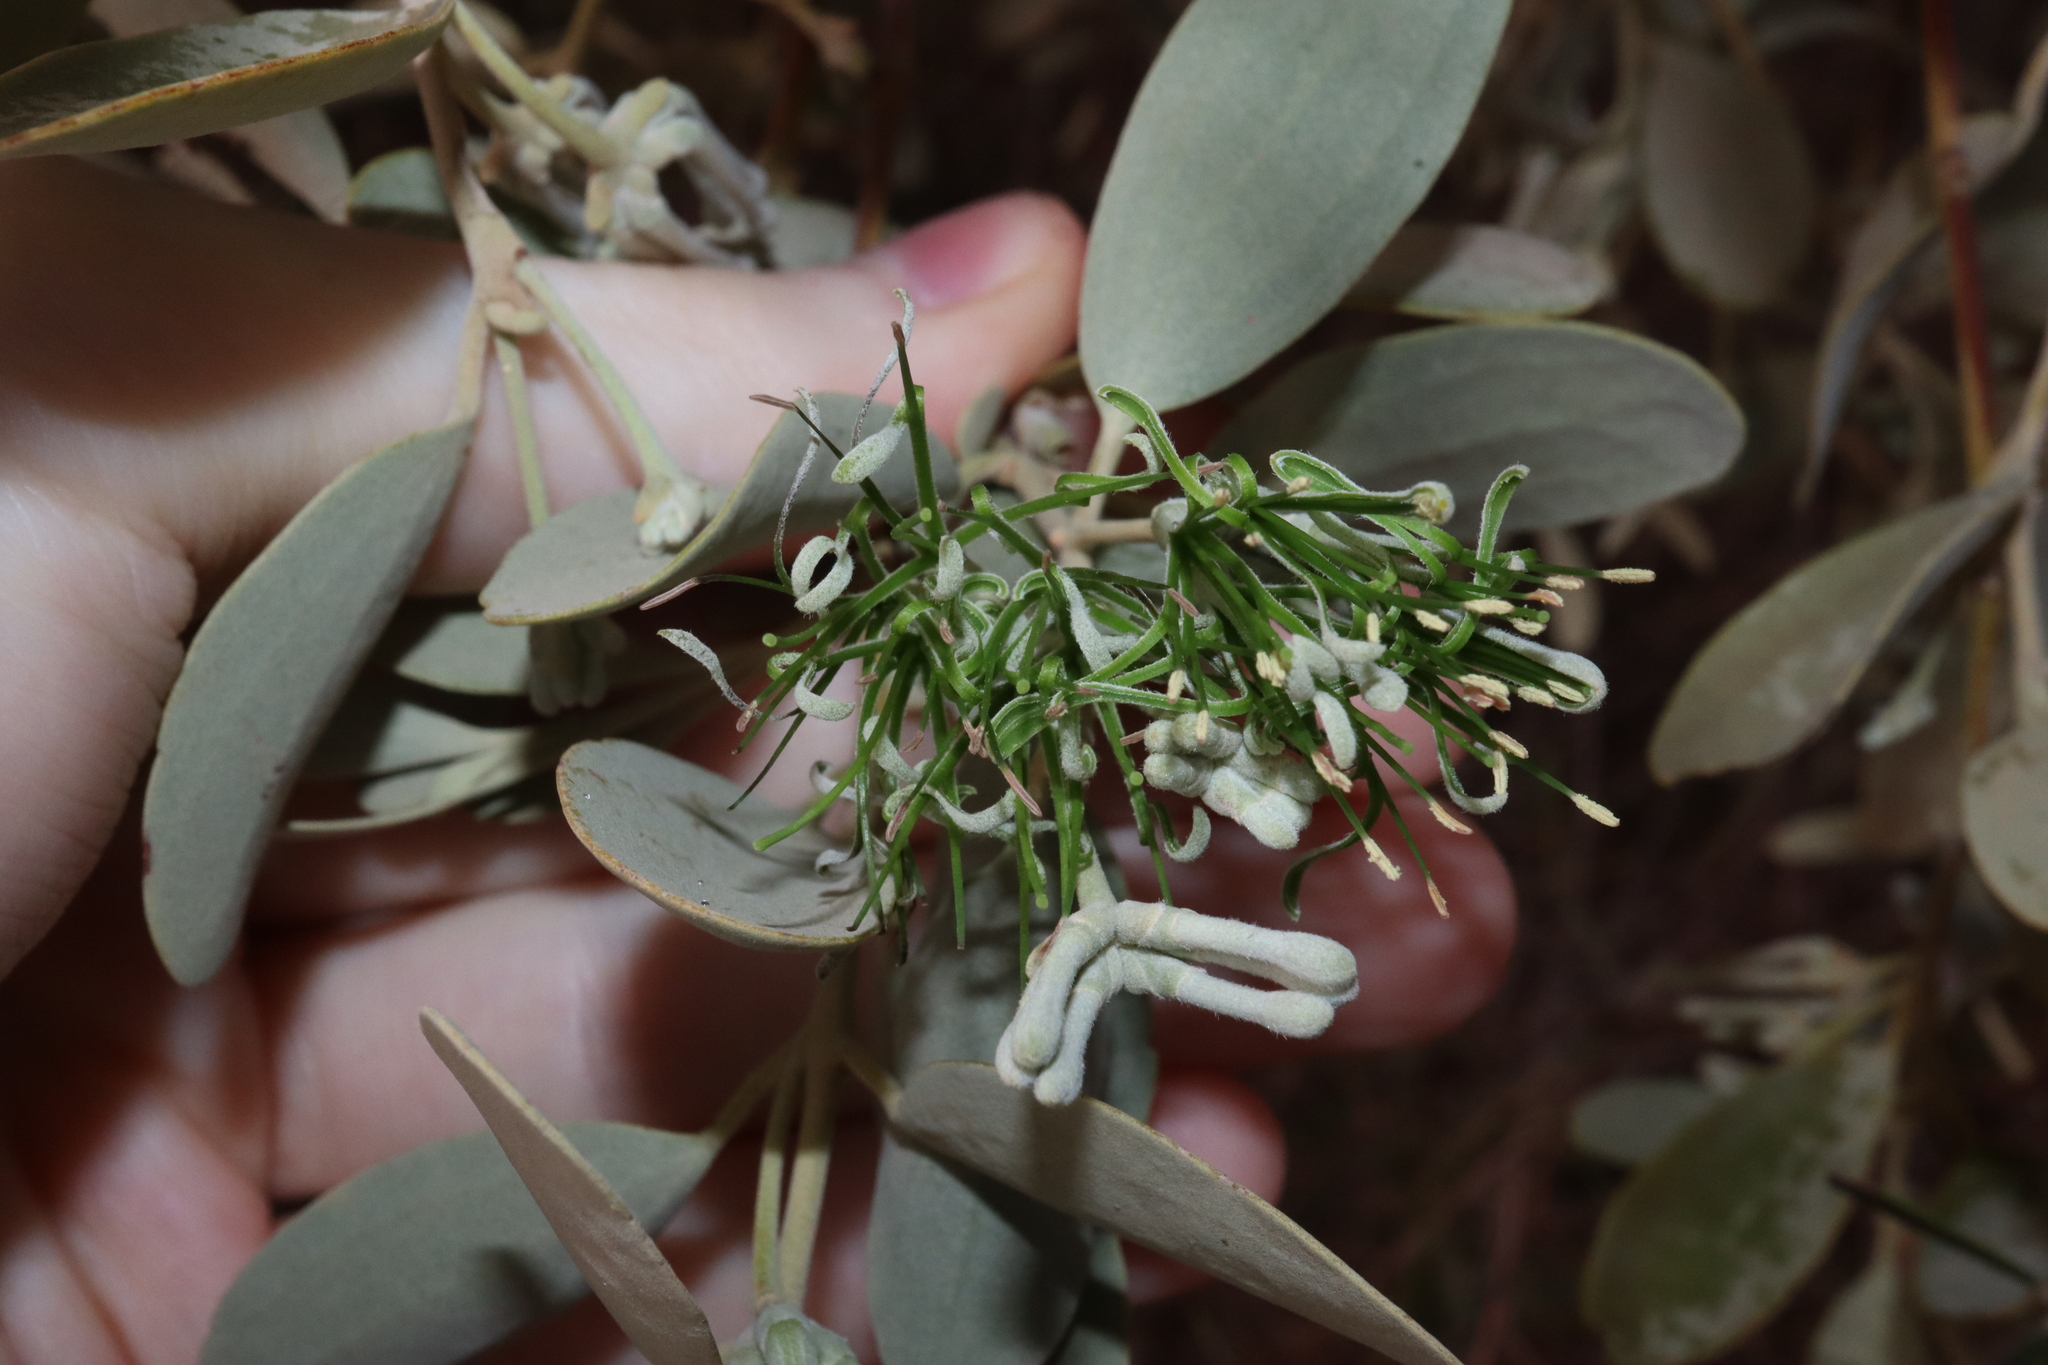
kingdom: Plantae
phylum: Tracheophyta
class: Magnoliopsida
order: Santalales
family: Loranthaceae
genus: Amyema
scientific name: Amyema maidenii
